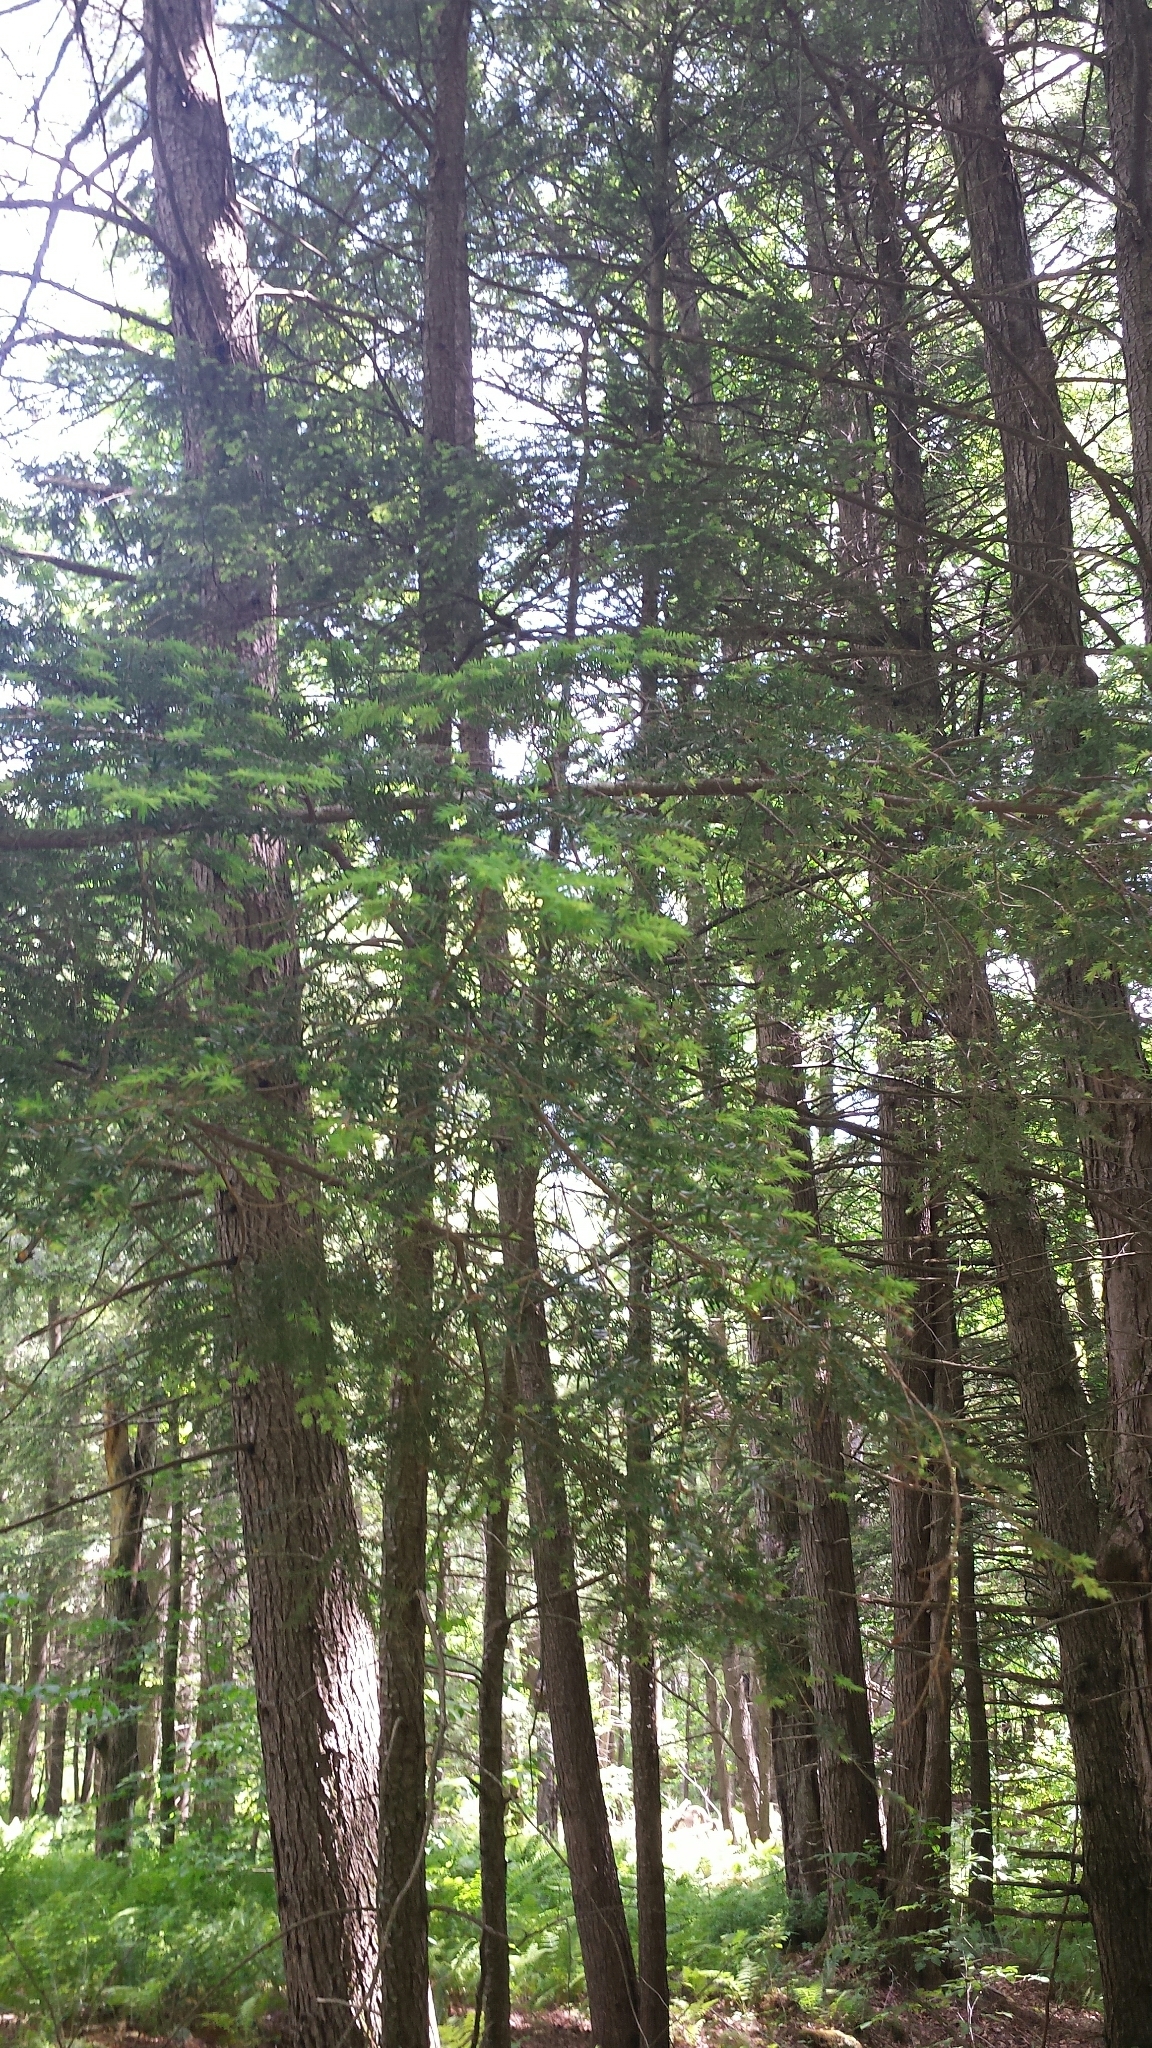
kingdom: Plantae
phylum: Tracheophyta
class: Pinopsida
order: Pinales
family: Pinaceae
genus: Tsuga
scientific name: Tsuga canadensis
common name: Eastern hemlock
